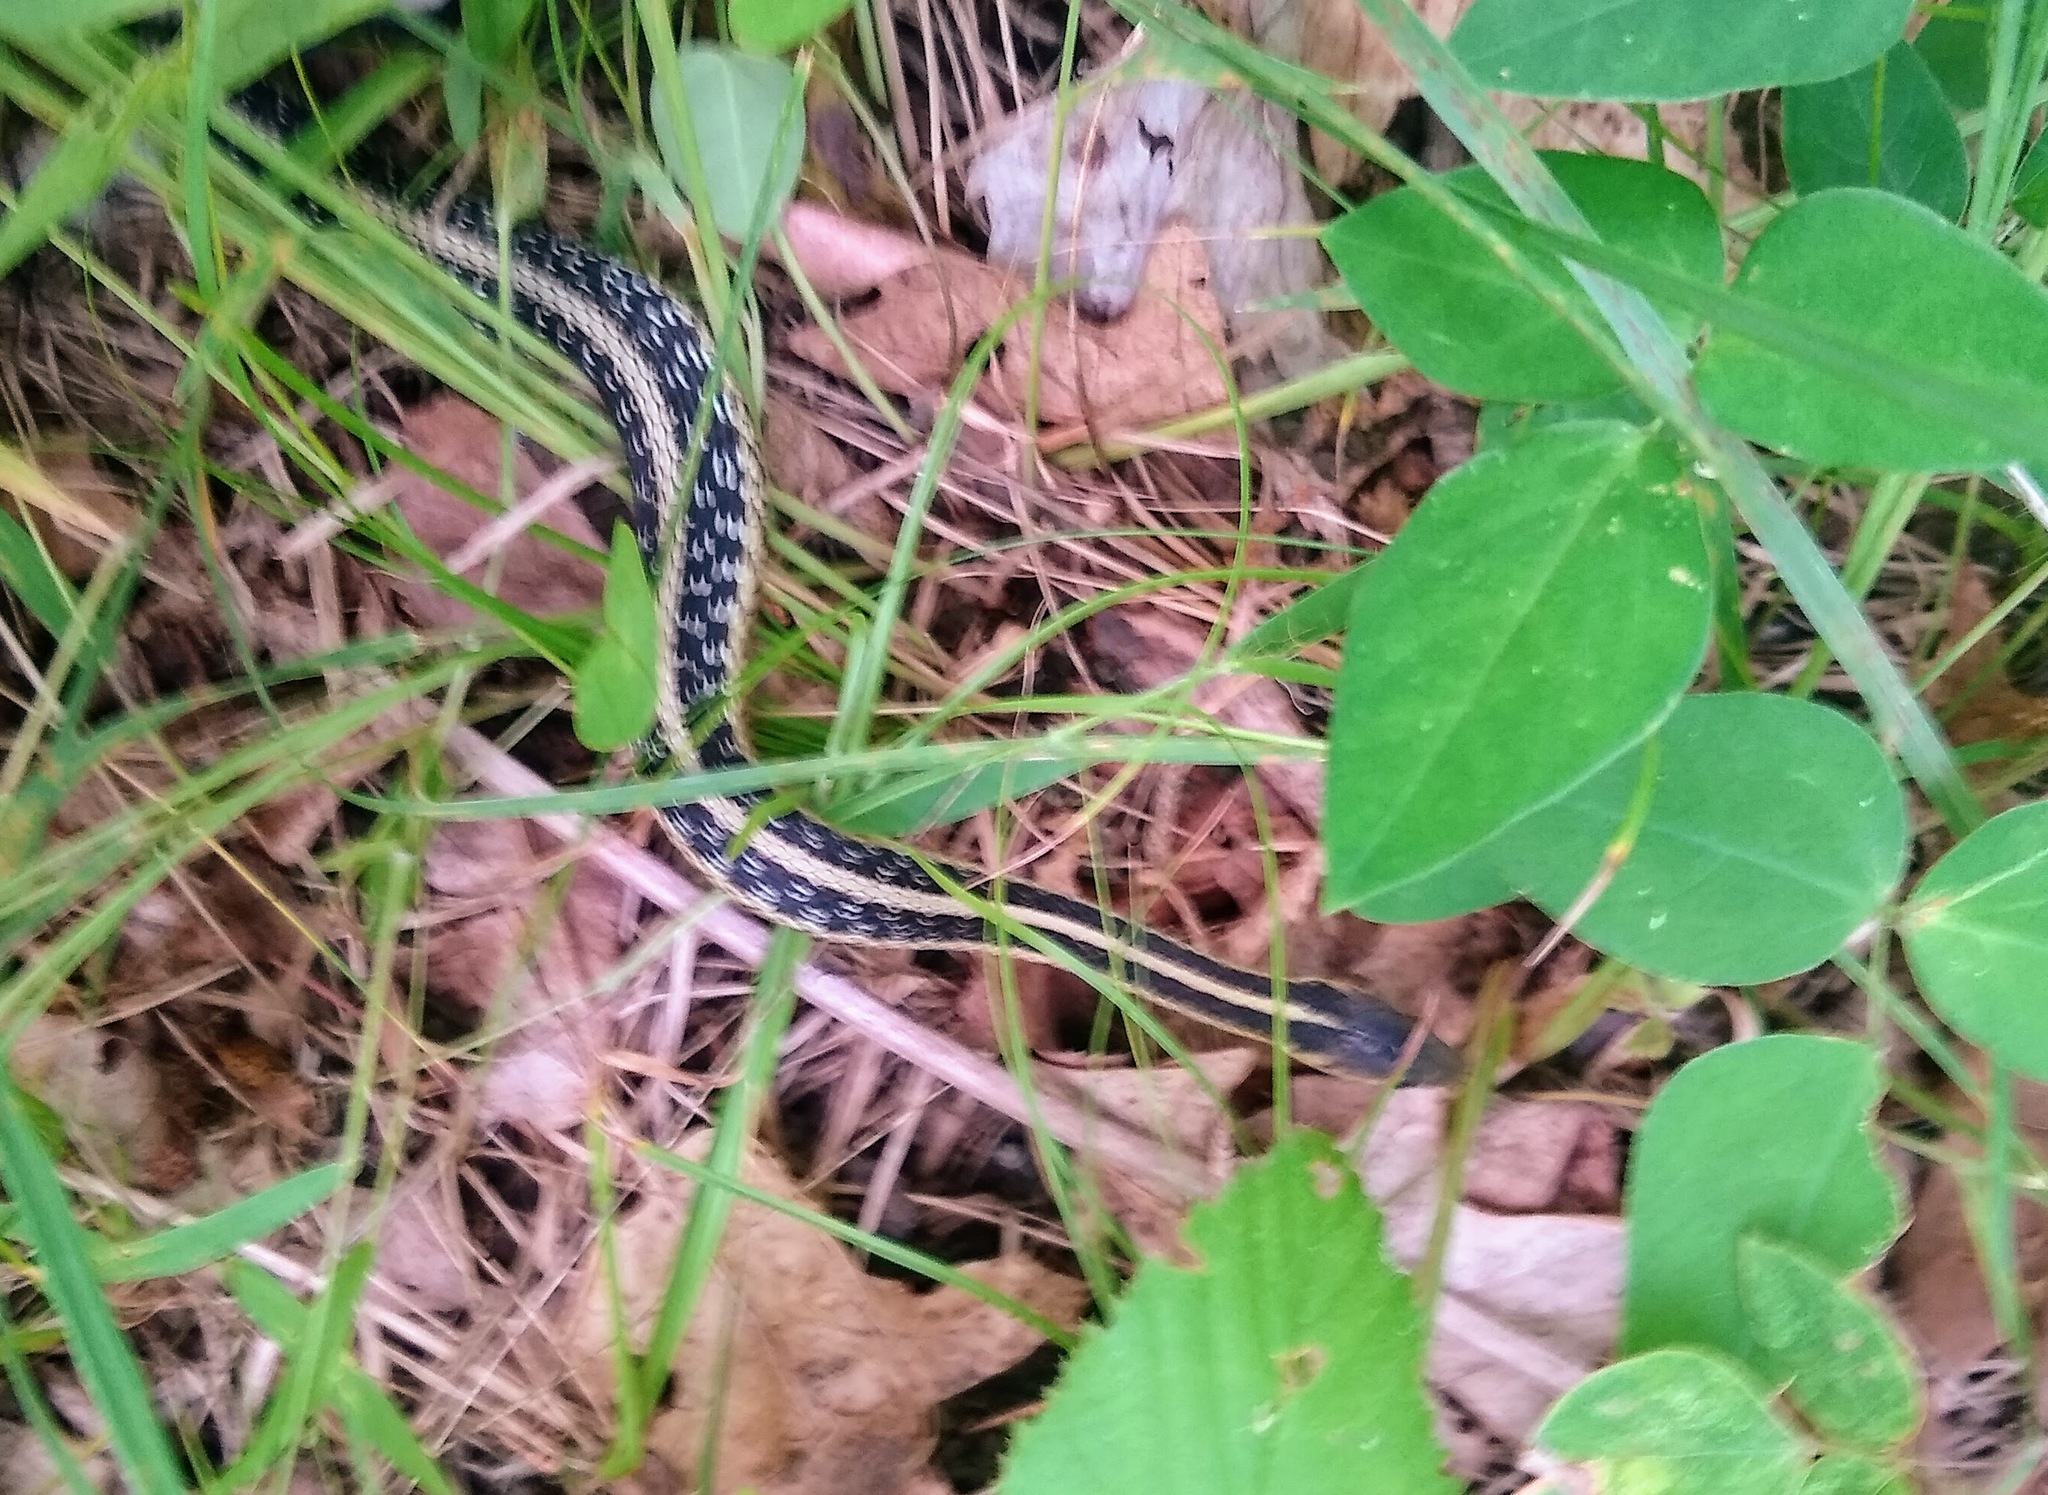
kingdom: Animalia
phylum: Chordata
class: Squamata
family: Colubridae
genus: Thamnophis
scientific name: Thamnophis sirtalis
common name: Common garter snake
